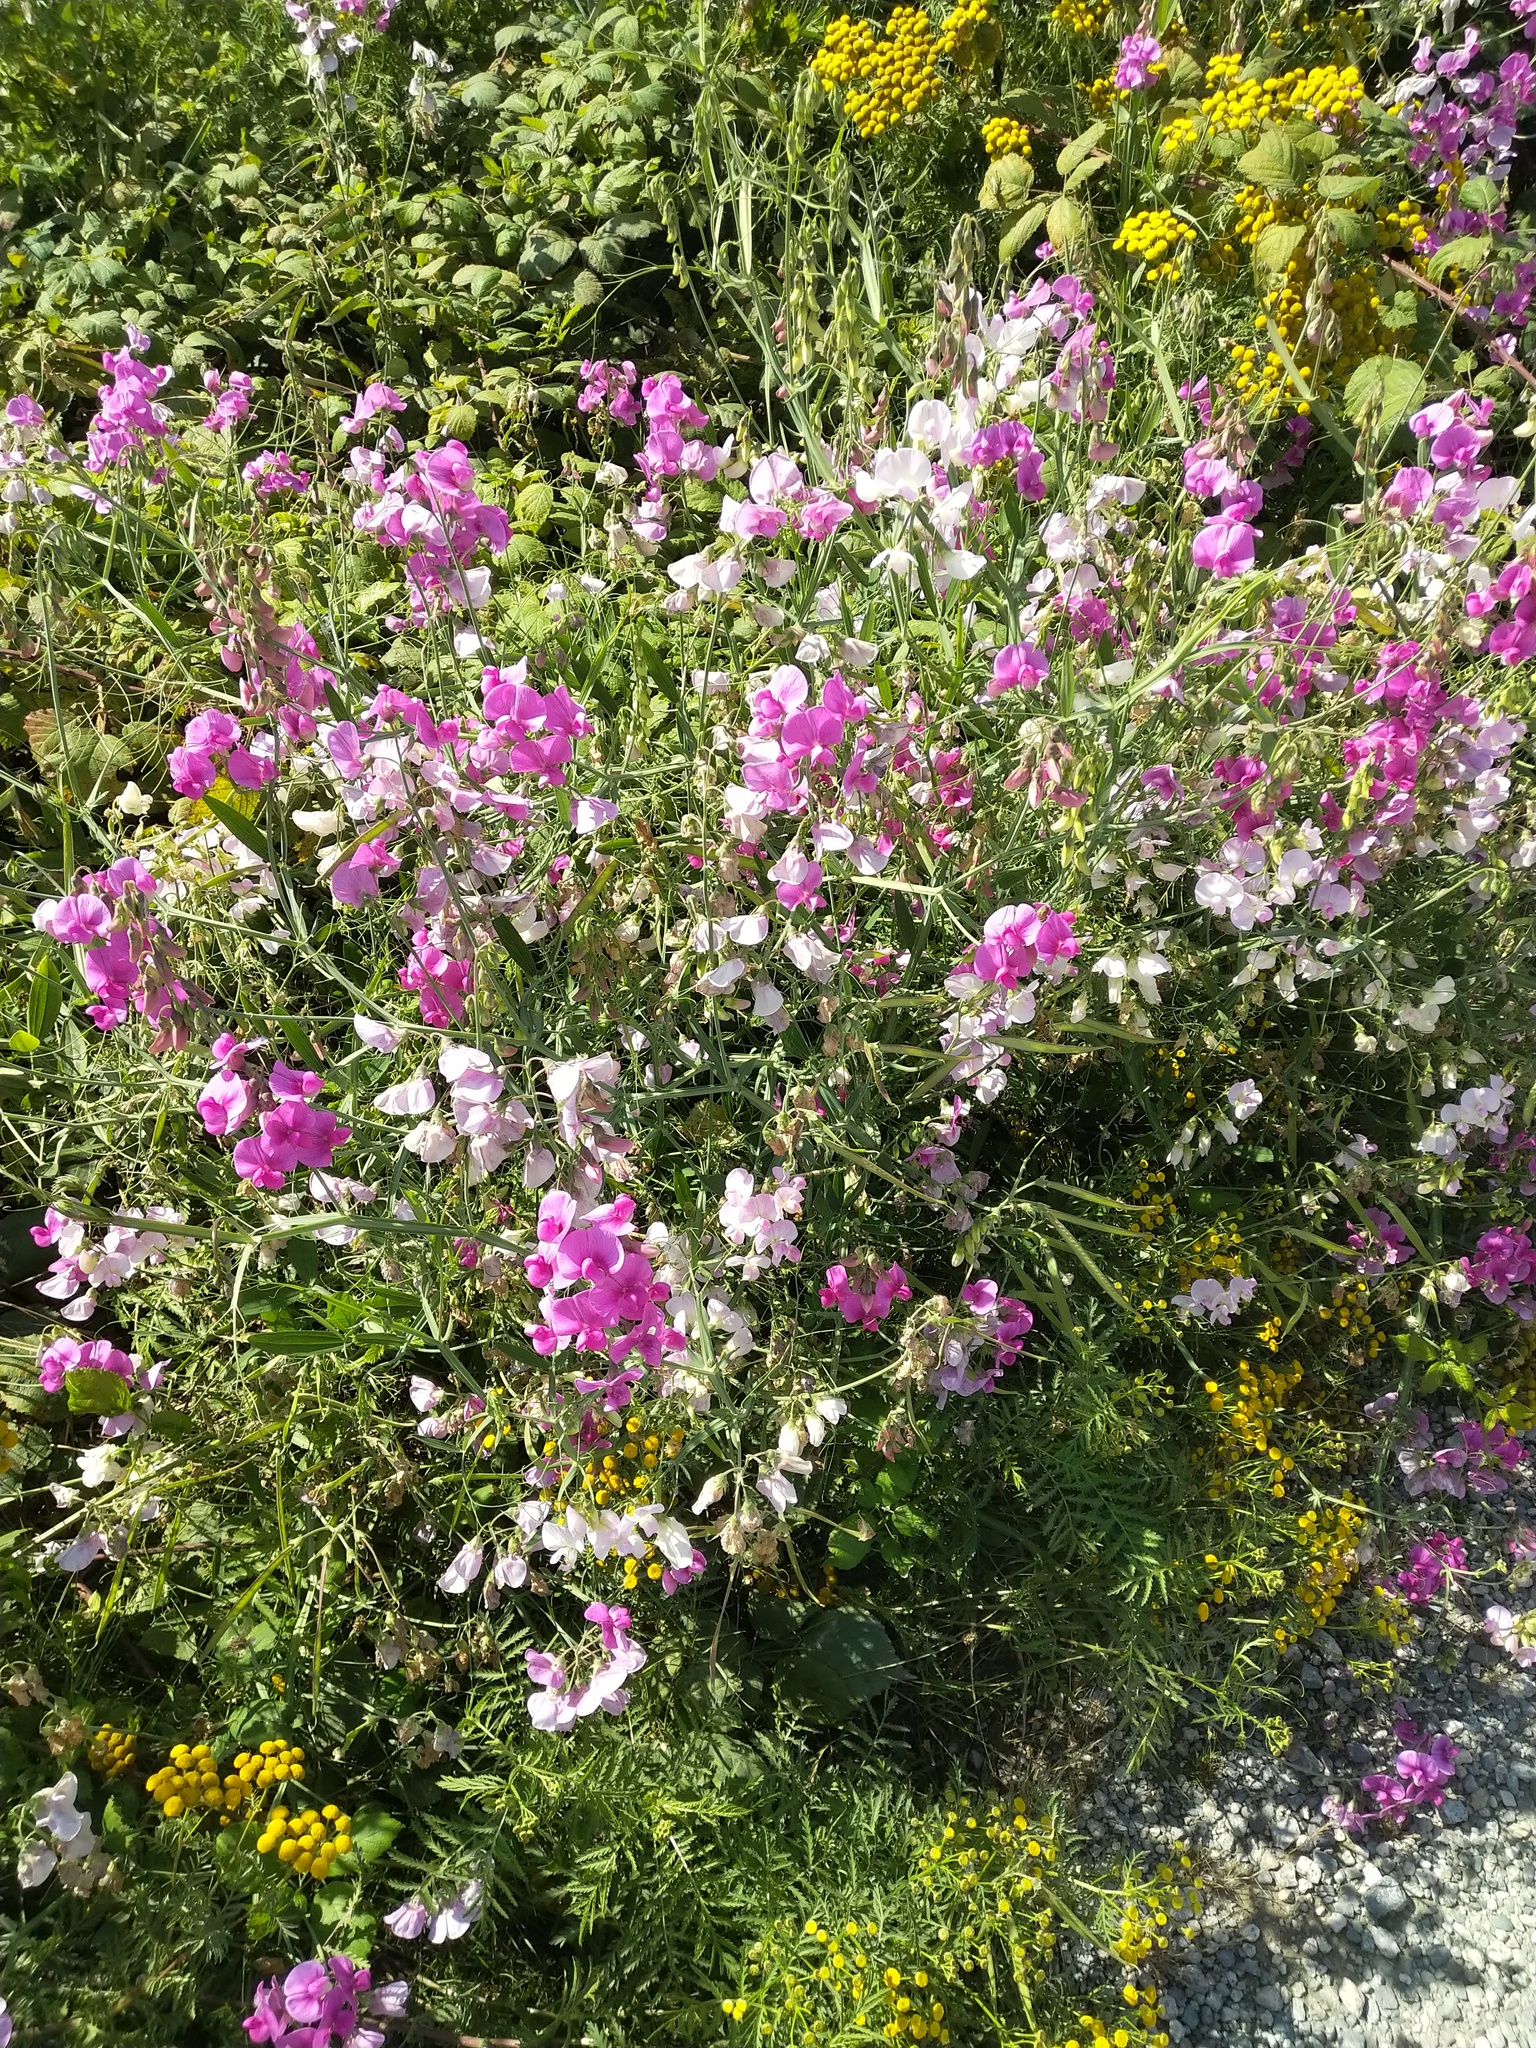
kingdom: Plantae
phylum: Tracheophyta
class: Magnoliopsida
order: Fabales
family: Fabaceae
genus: Lathyrus
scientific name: Lathyrus latifolius
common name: Perennial pea
